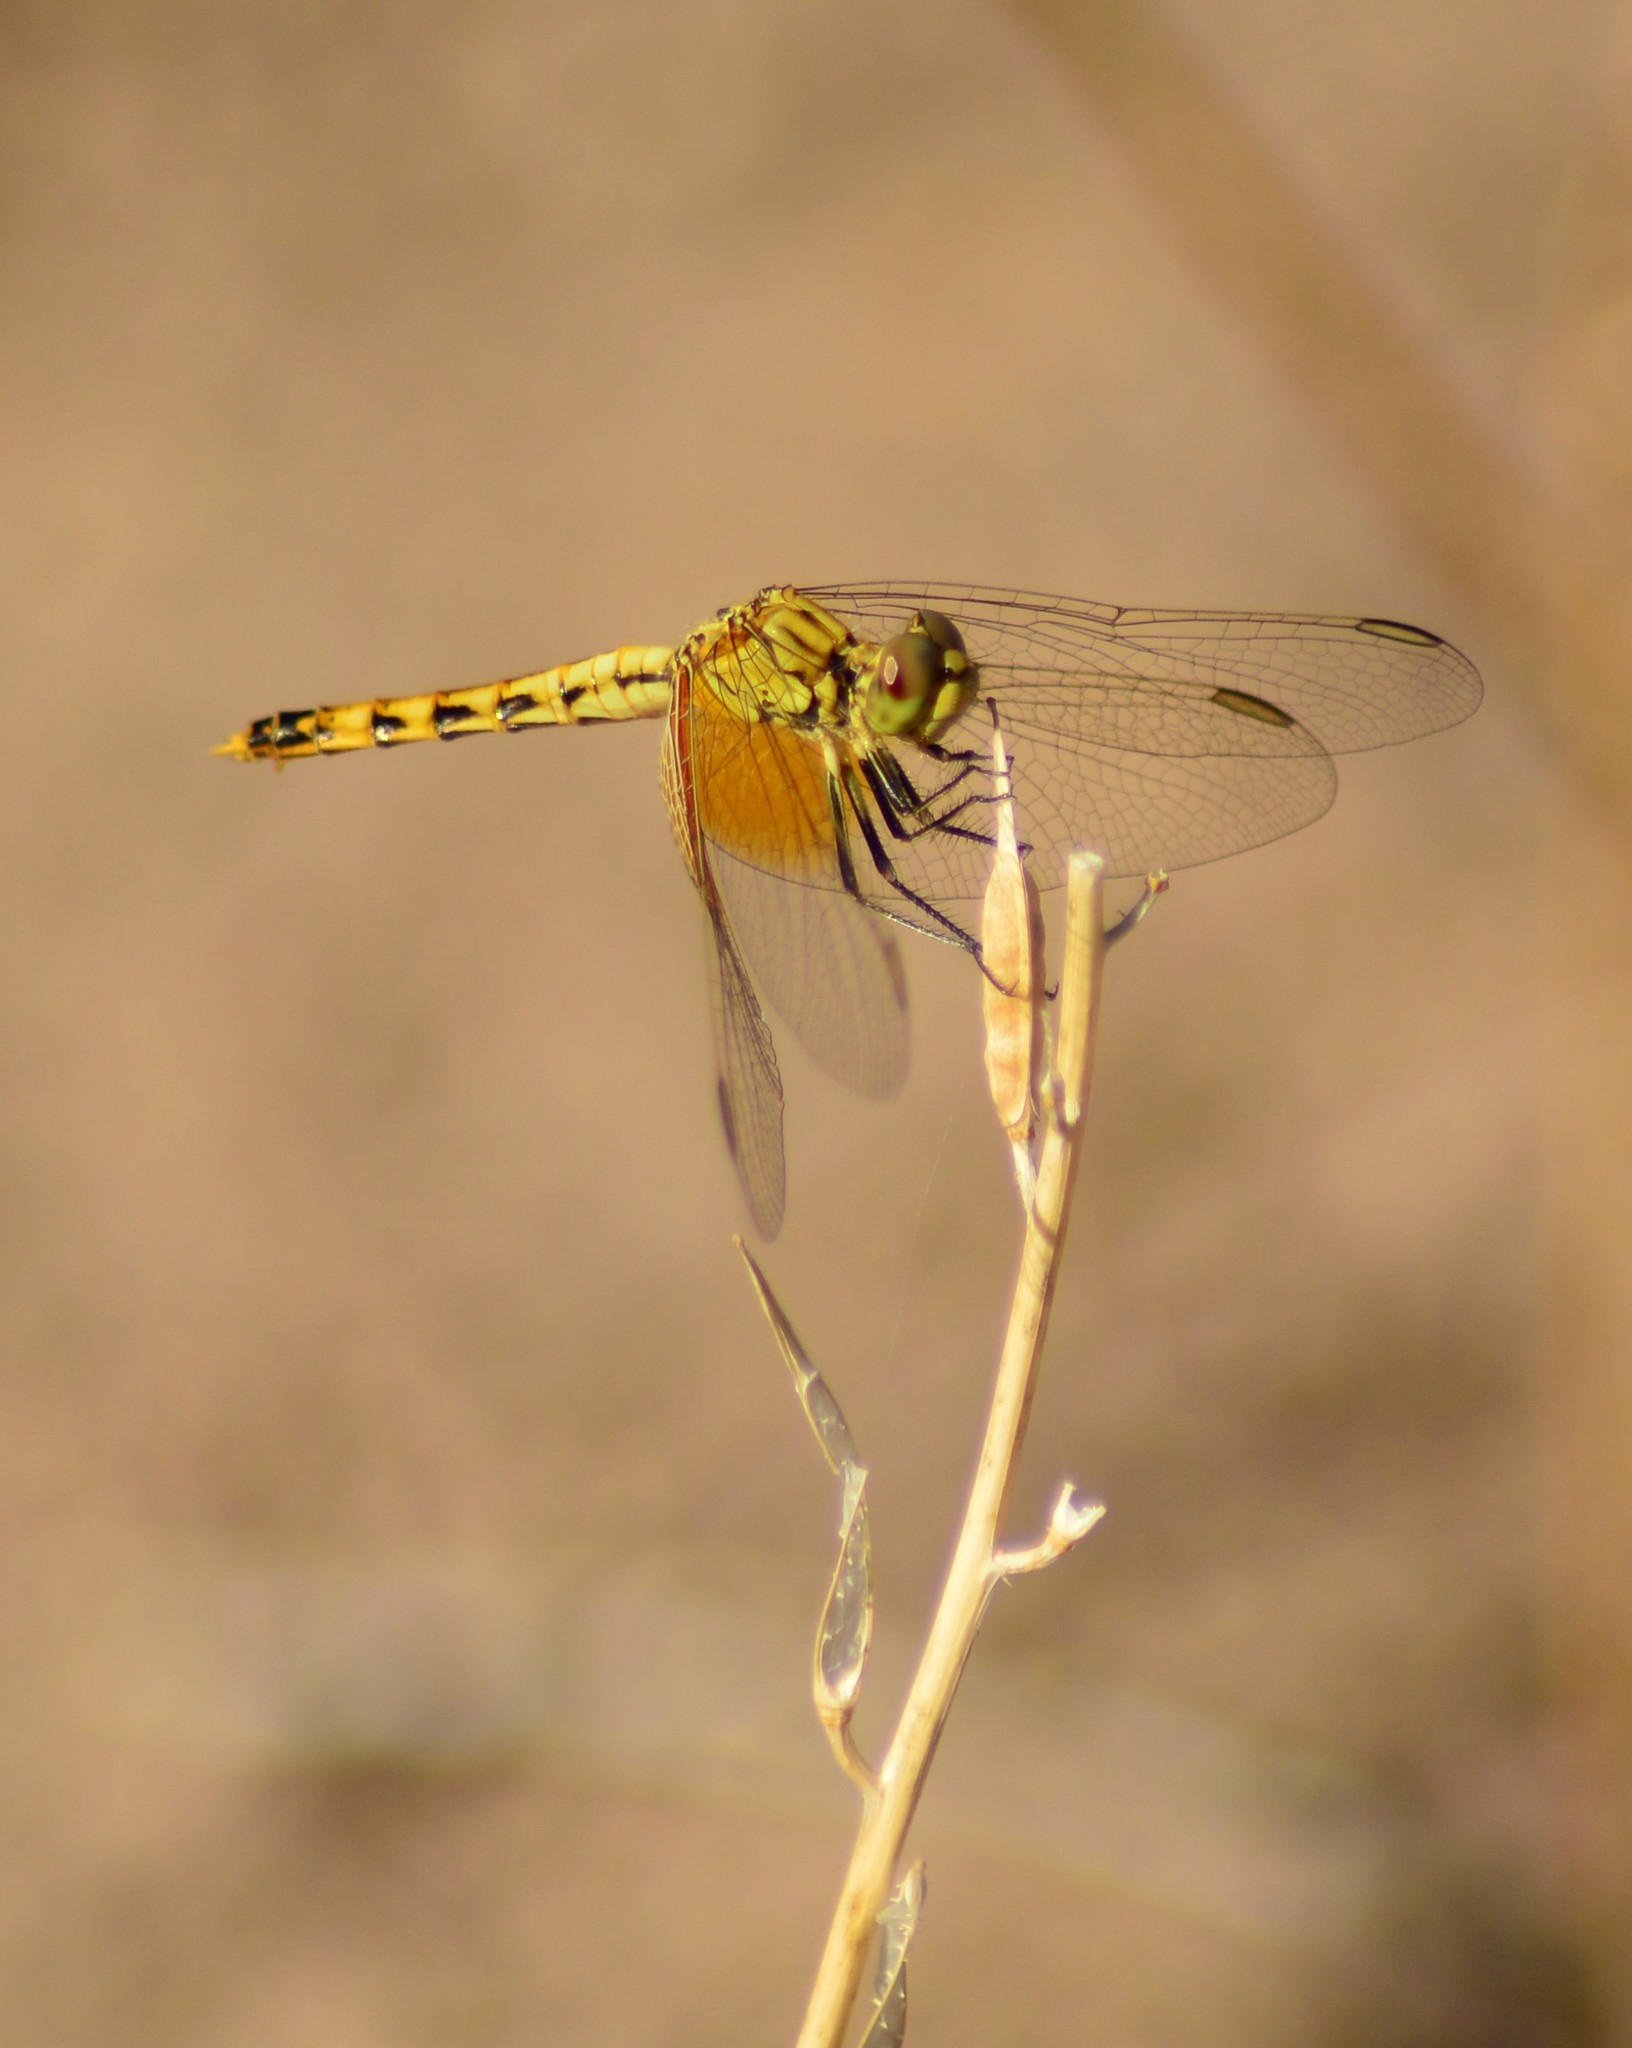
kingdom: Animalia
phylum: Arthropoda
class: Insecta
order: Odonata
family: Libellulidae
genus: Erythrodiplax
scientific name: Erythrodiplax corallina
